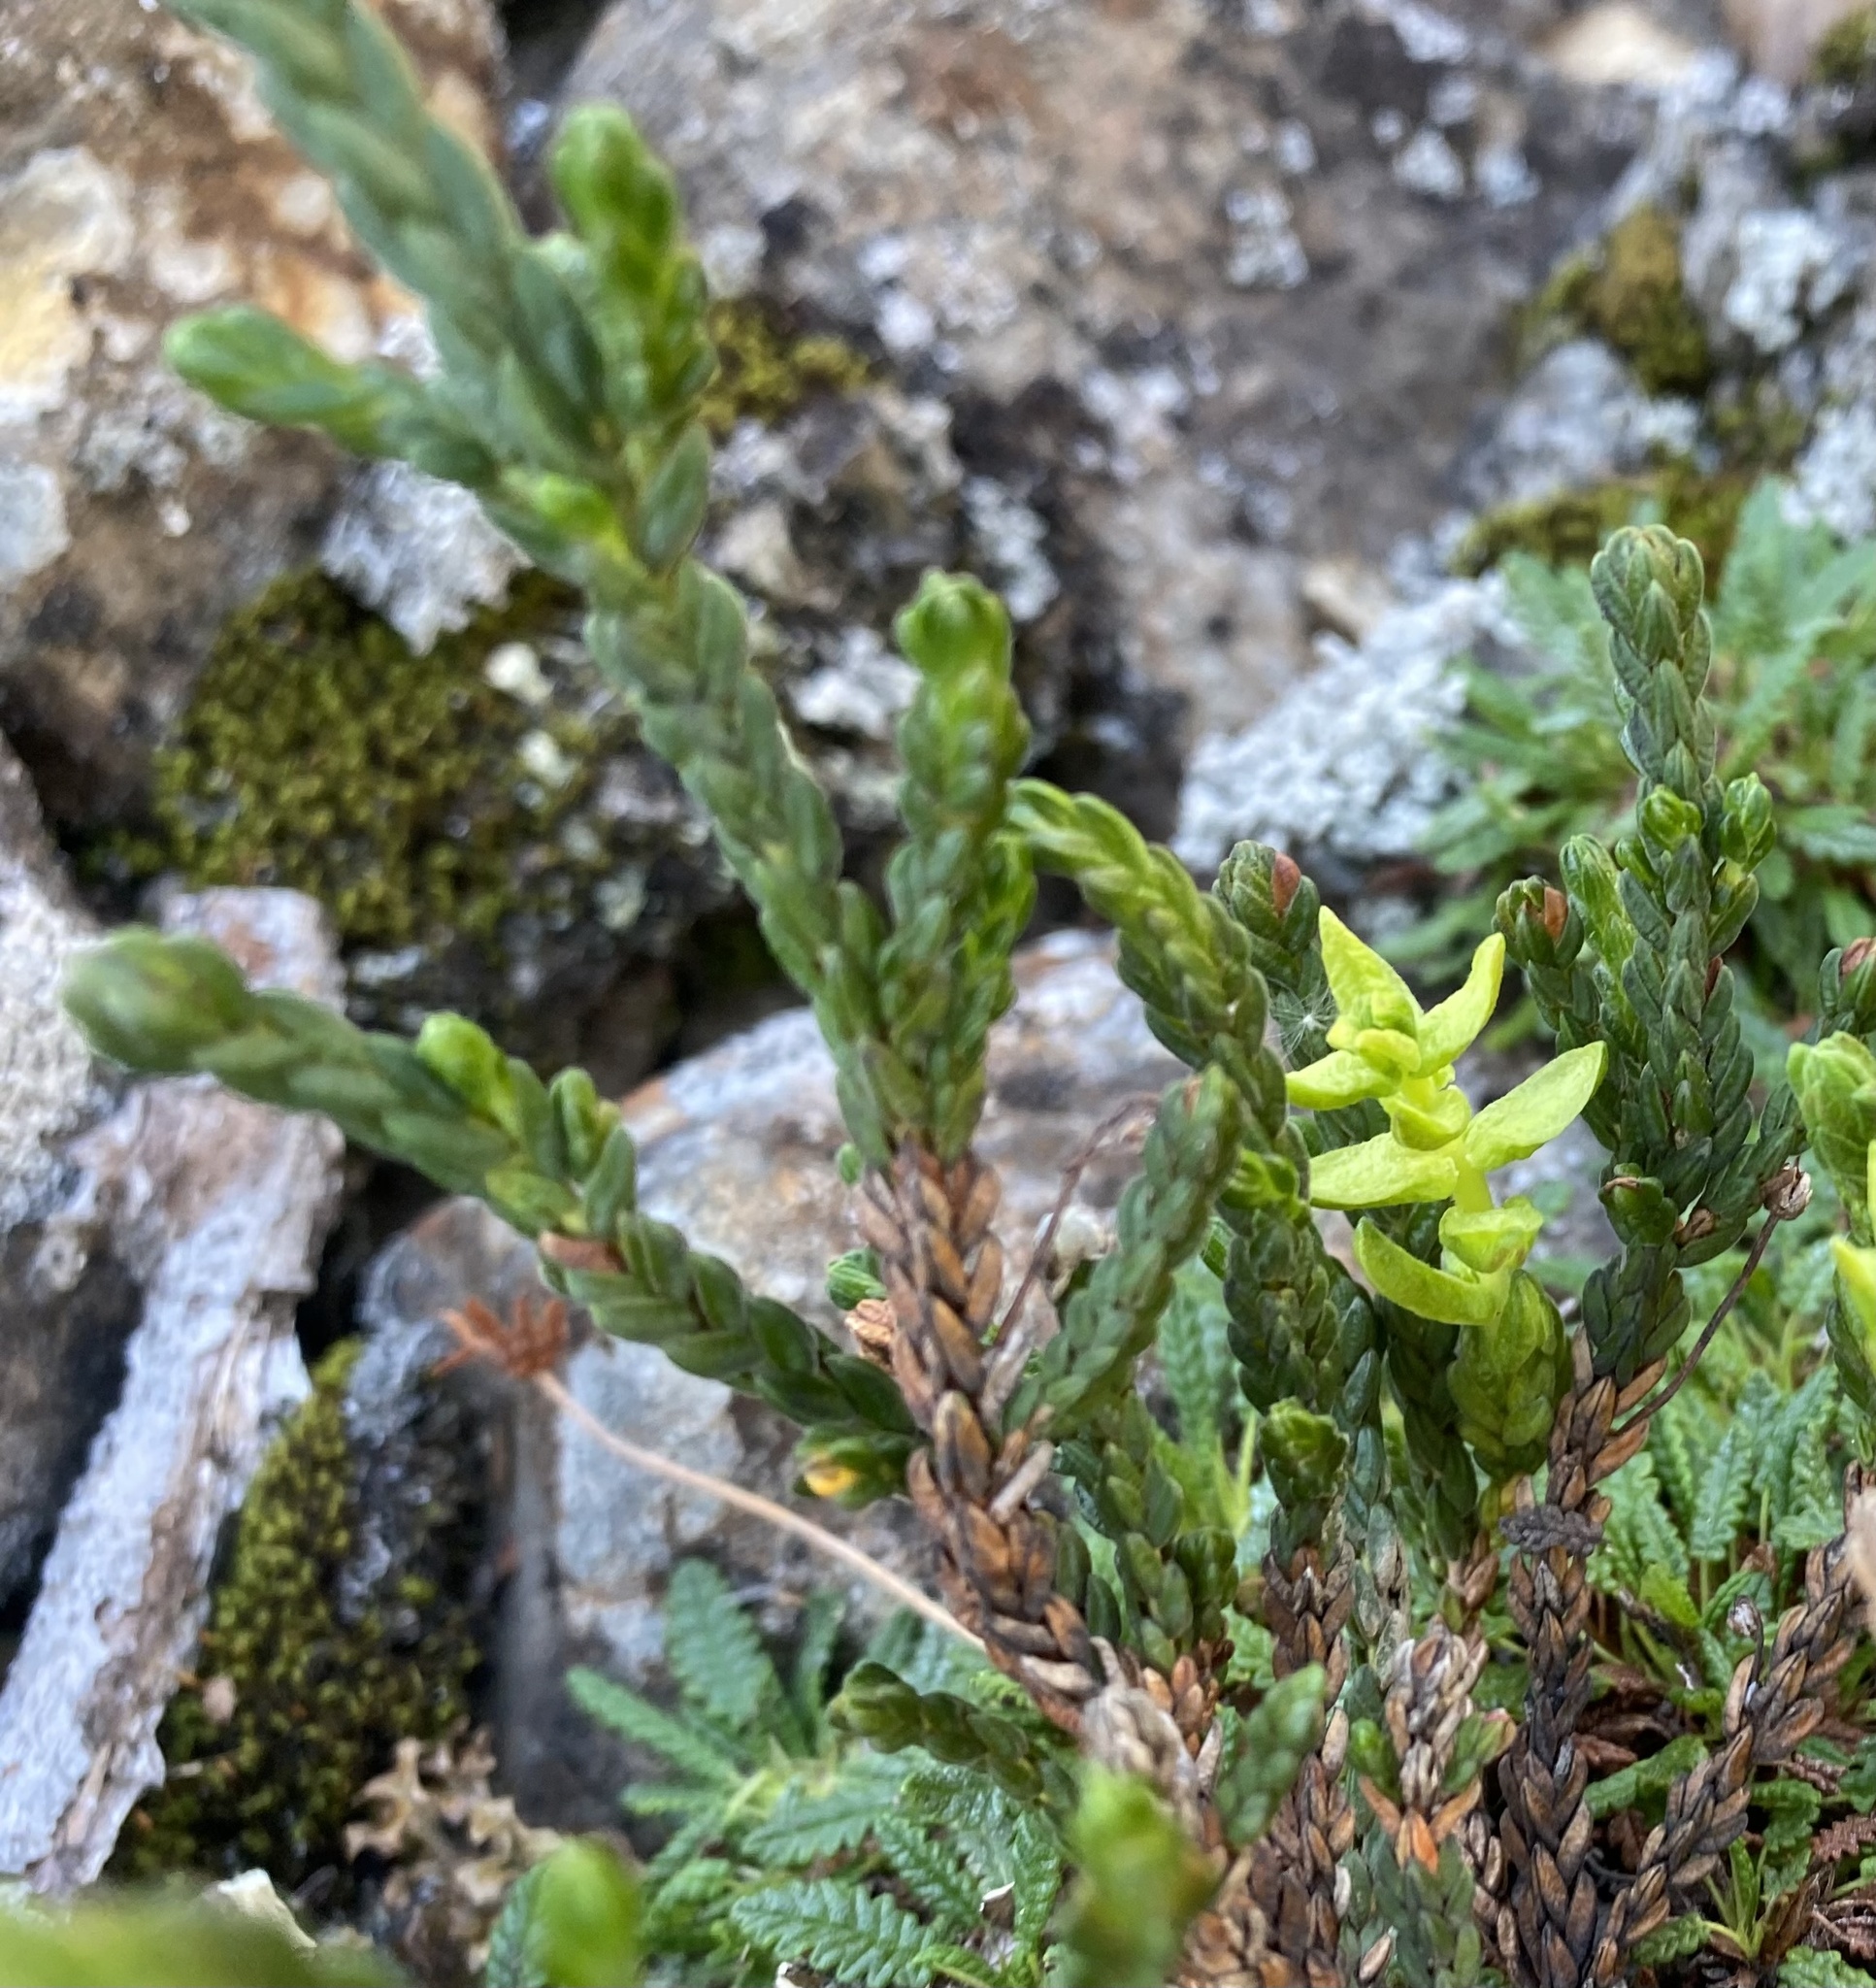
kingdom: Plantae
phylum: Tracheophyta
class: Magnoliopsida
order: Ericales
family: Ericaceae
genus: Cassiope
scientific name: Cassiope tetragona
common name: Arctic bell heather
